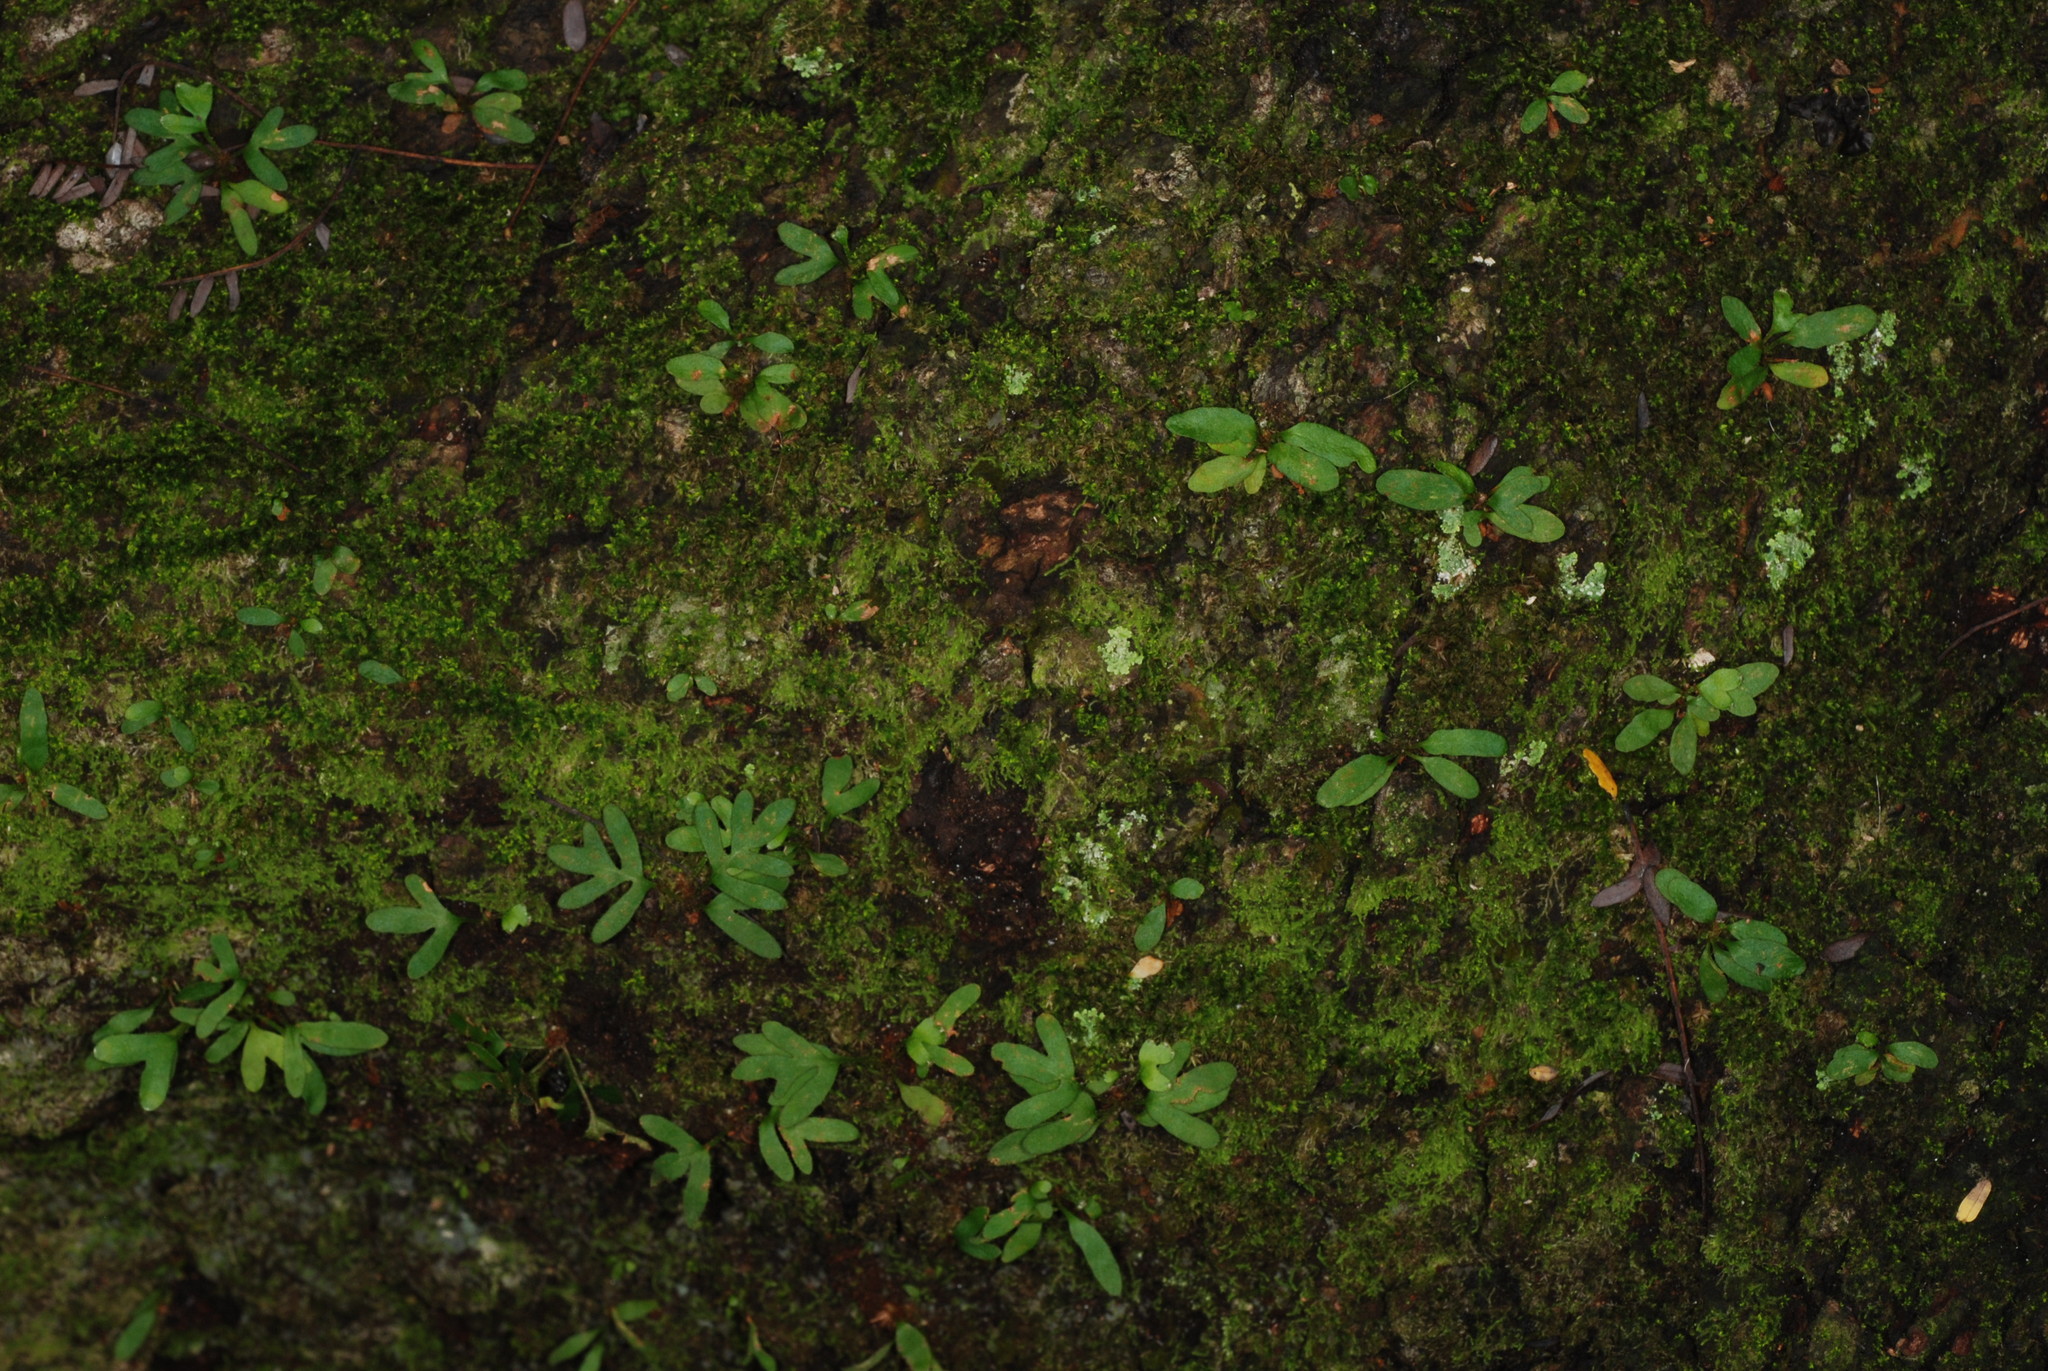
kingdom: Plantae
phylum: Tracheophyta
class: Polypodiopsida
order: Polypodiales
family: Polypodiaceae
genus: Pleopeltis
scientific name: Pleopeltis michauxiana
